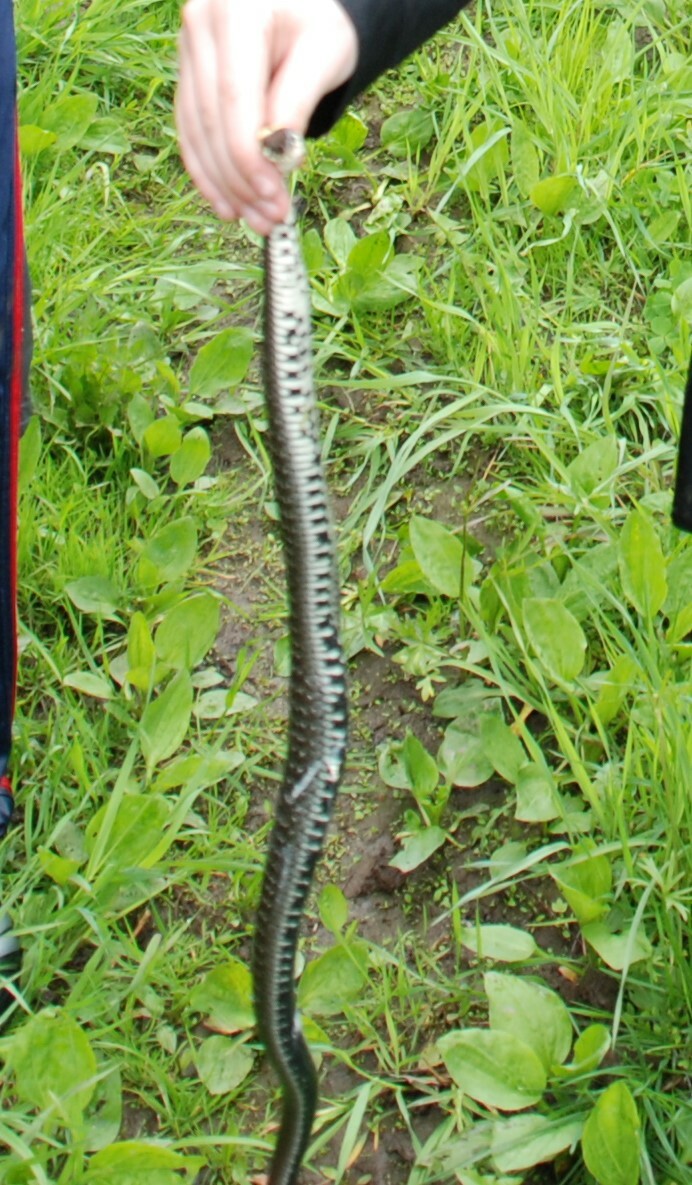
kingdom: Animalia
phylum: Chordata
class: Squamata
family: Colubridae
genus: Natrix
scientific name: Natrix natrix
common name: Grass snake
